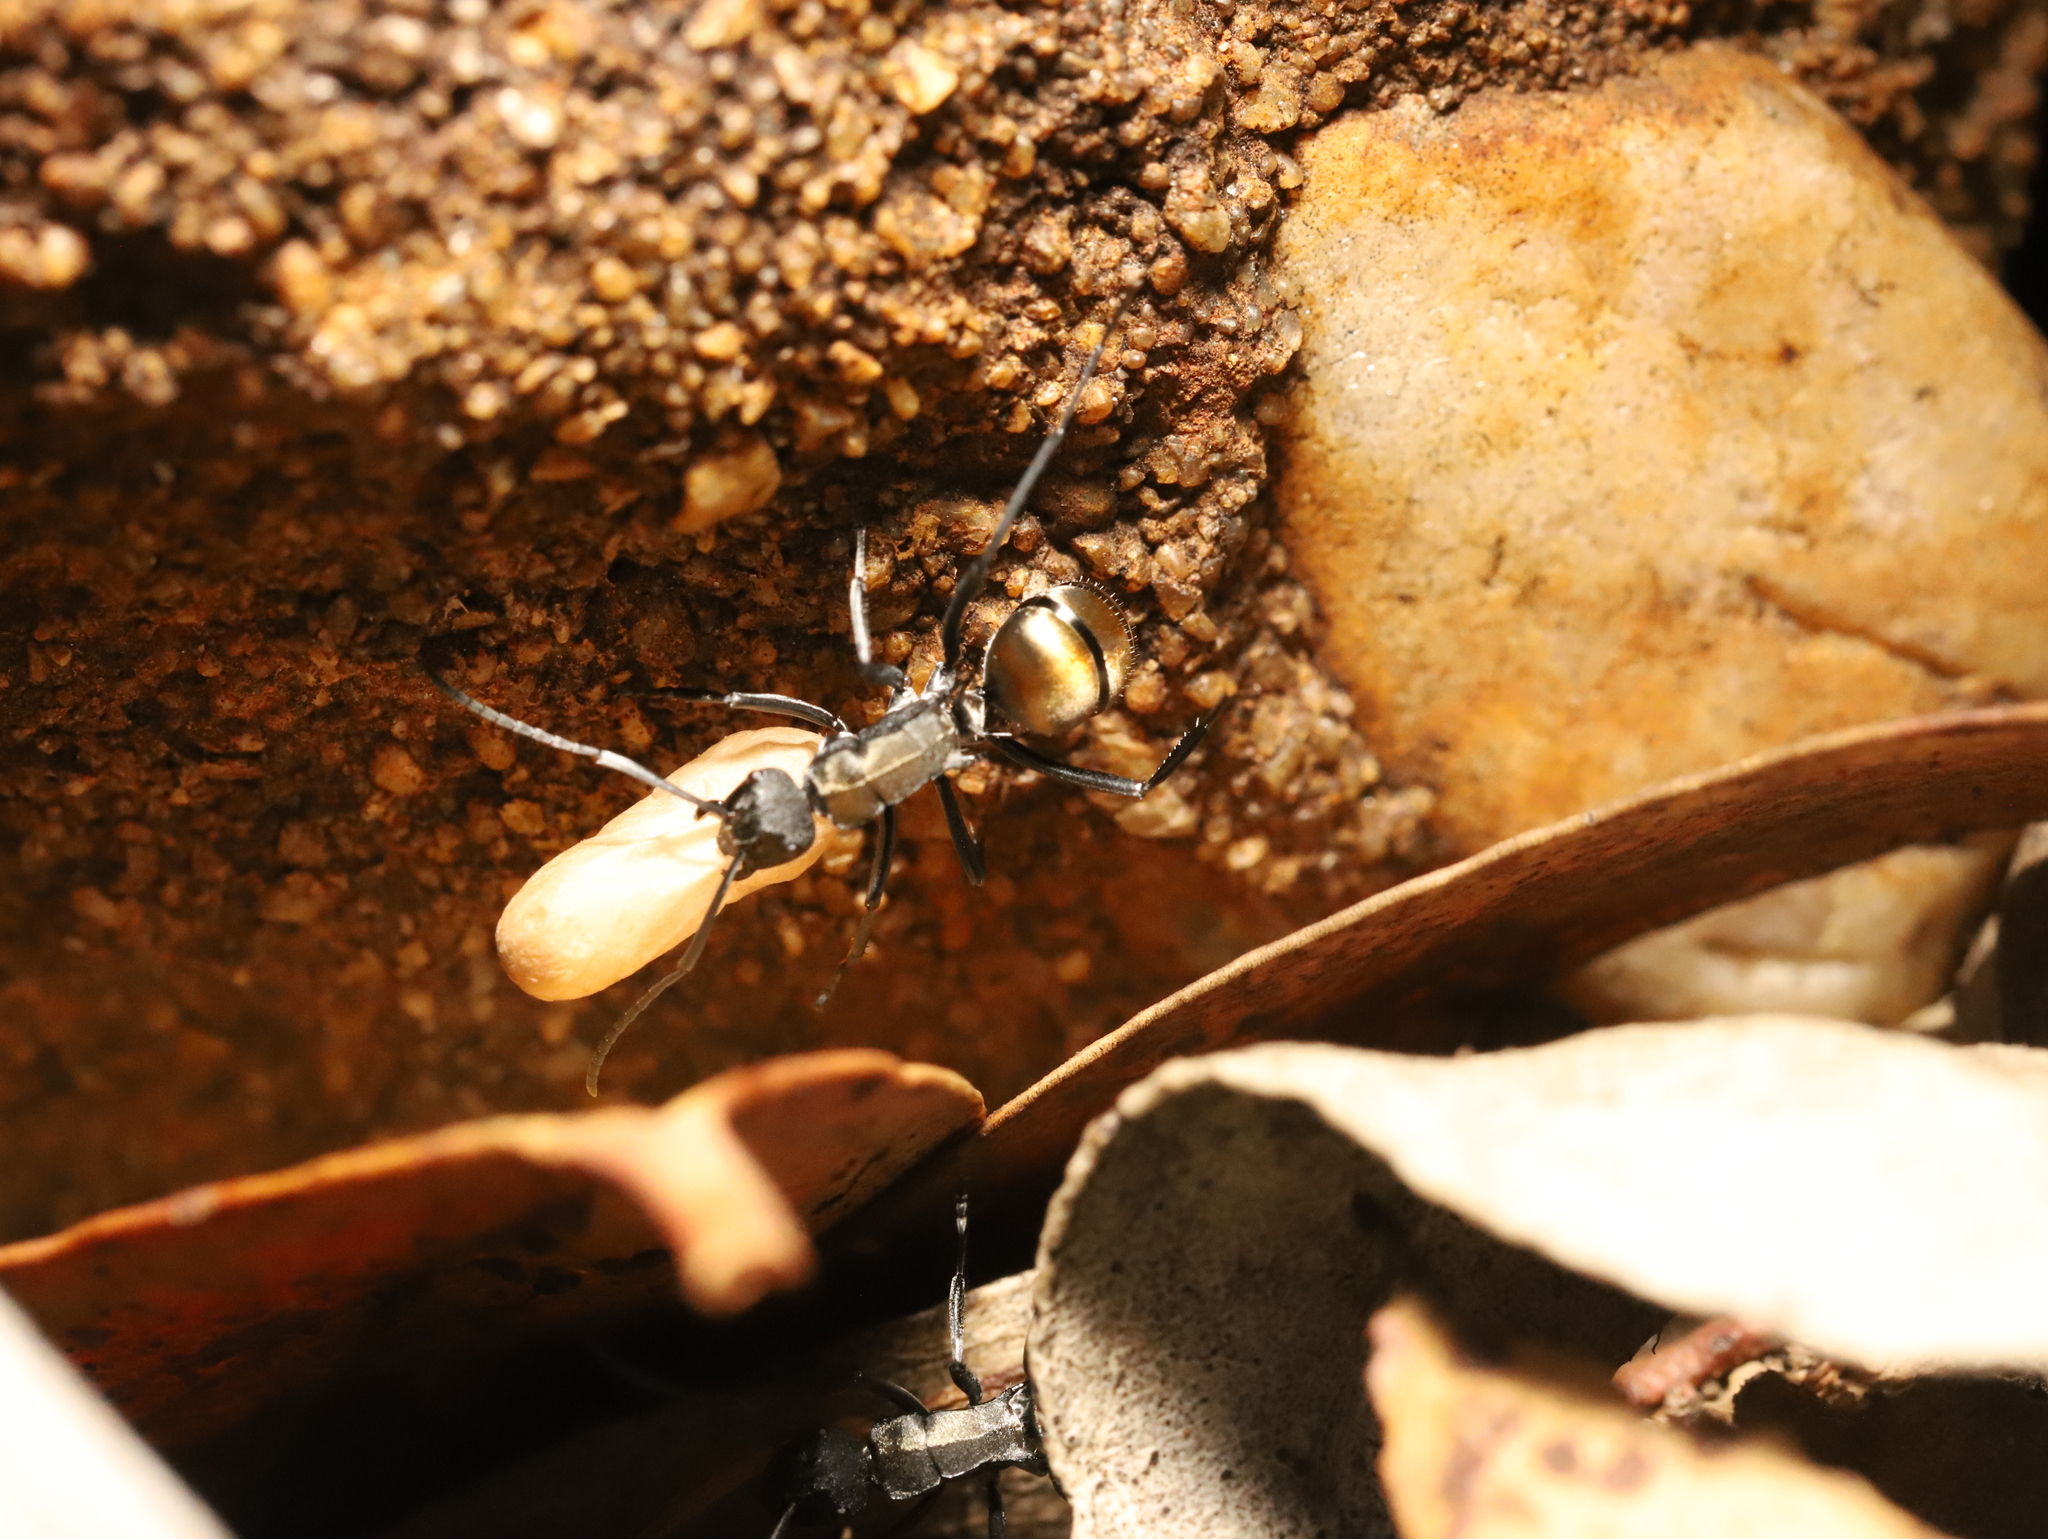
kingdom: Animalia
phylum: Arthropoda
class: Insecta
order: Hymenoptera
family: Formicidae
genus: Polyrhachis
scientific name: Polyrhachis ammon
